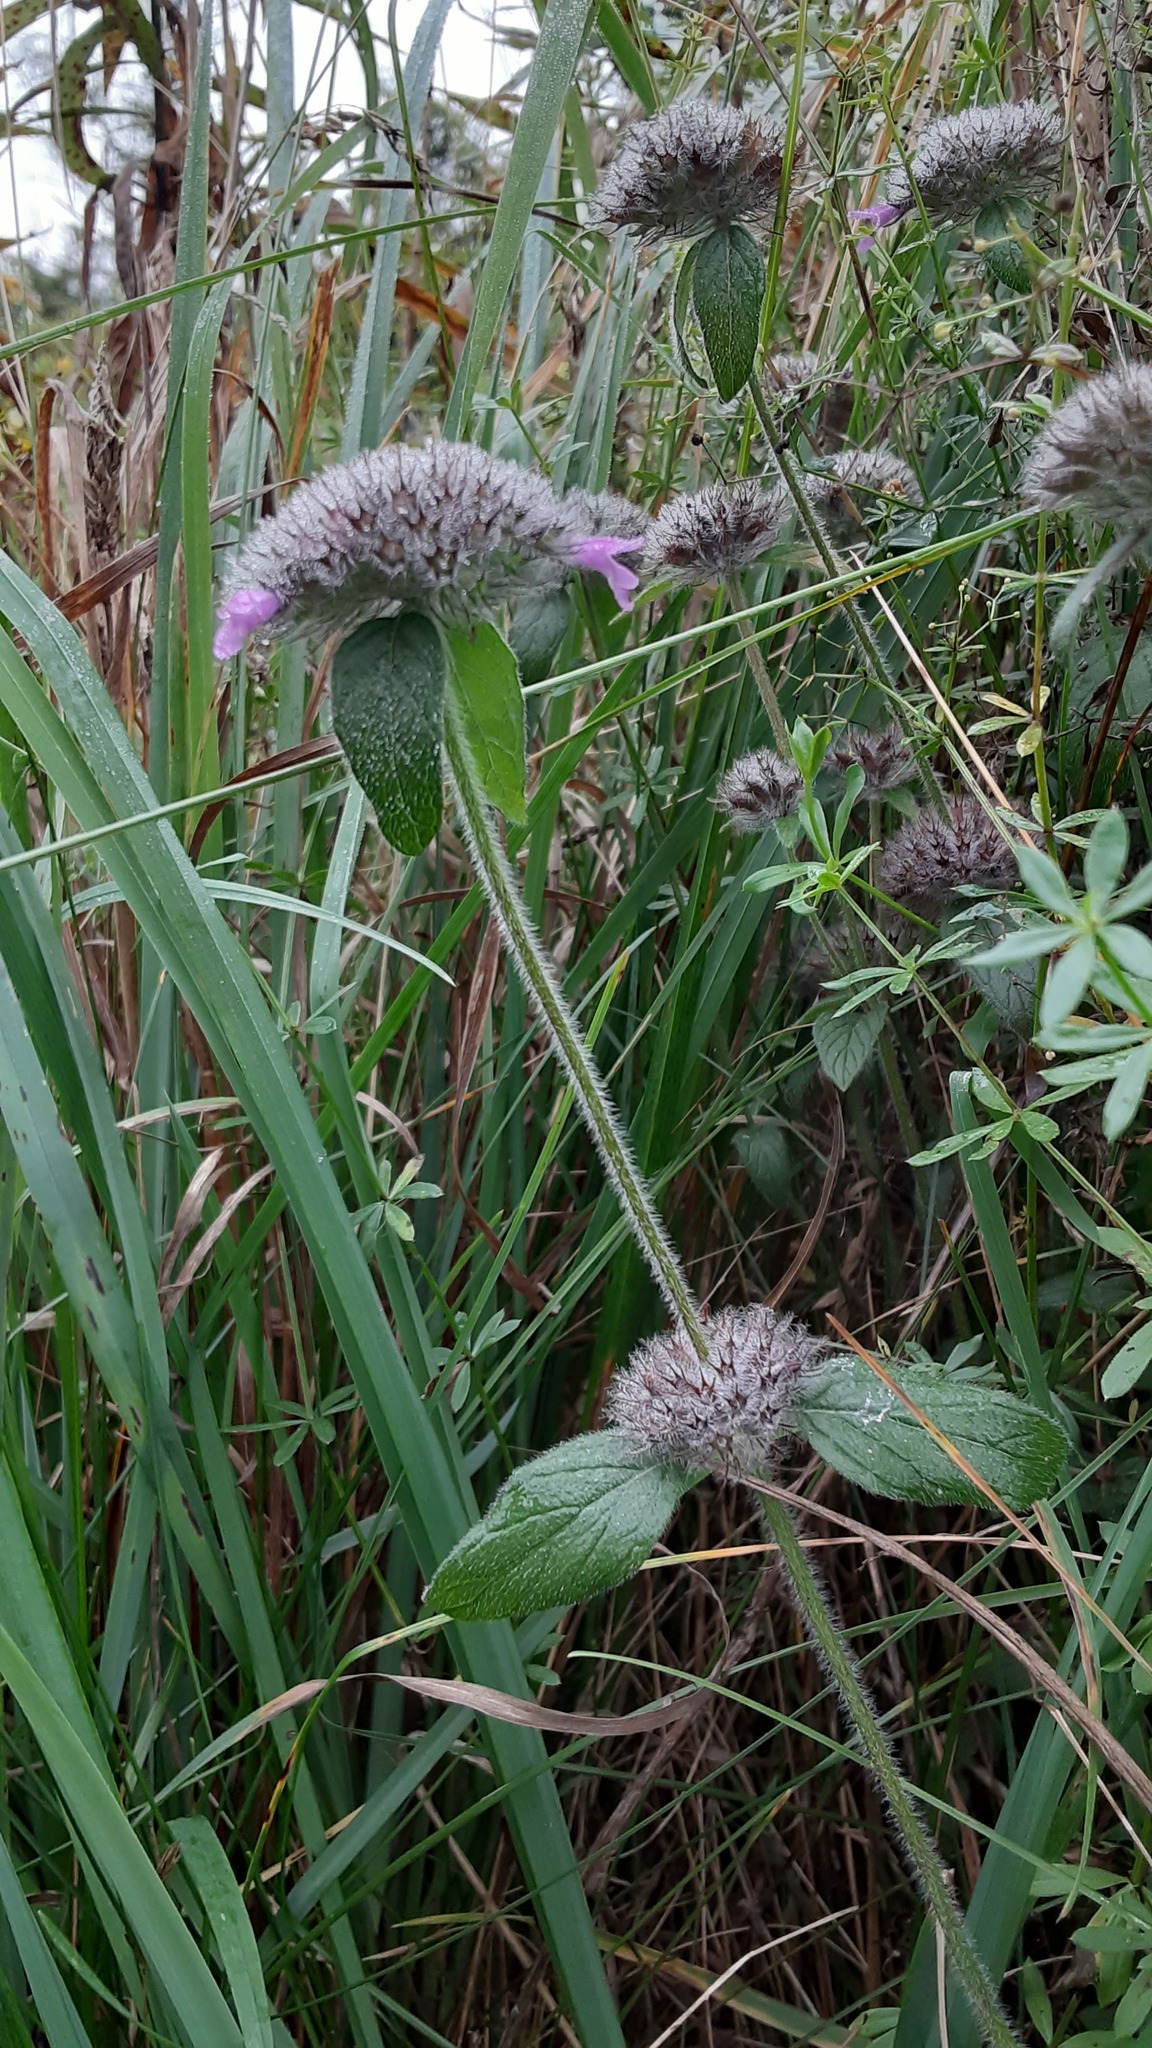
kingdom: Plantae
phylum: Tracheophyta
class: Magnoliopsida
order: Lamiales
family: Lamiaceae
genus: Clinopodium
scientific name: Clinopodium vulgare
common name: Wild basil
